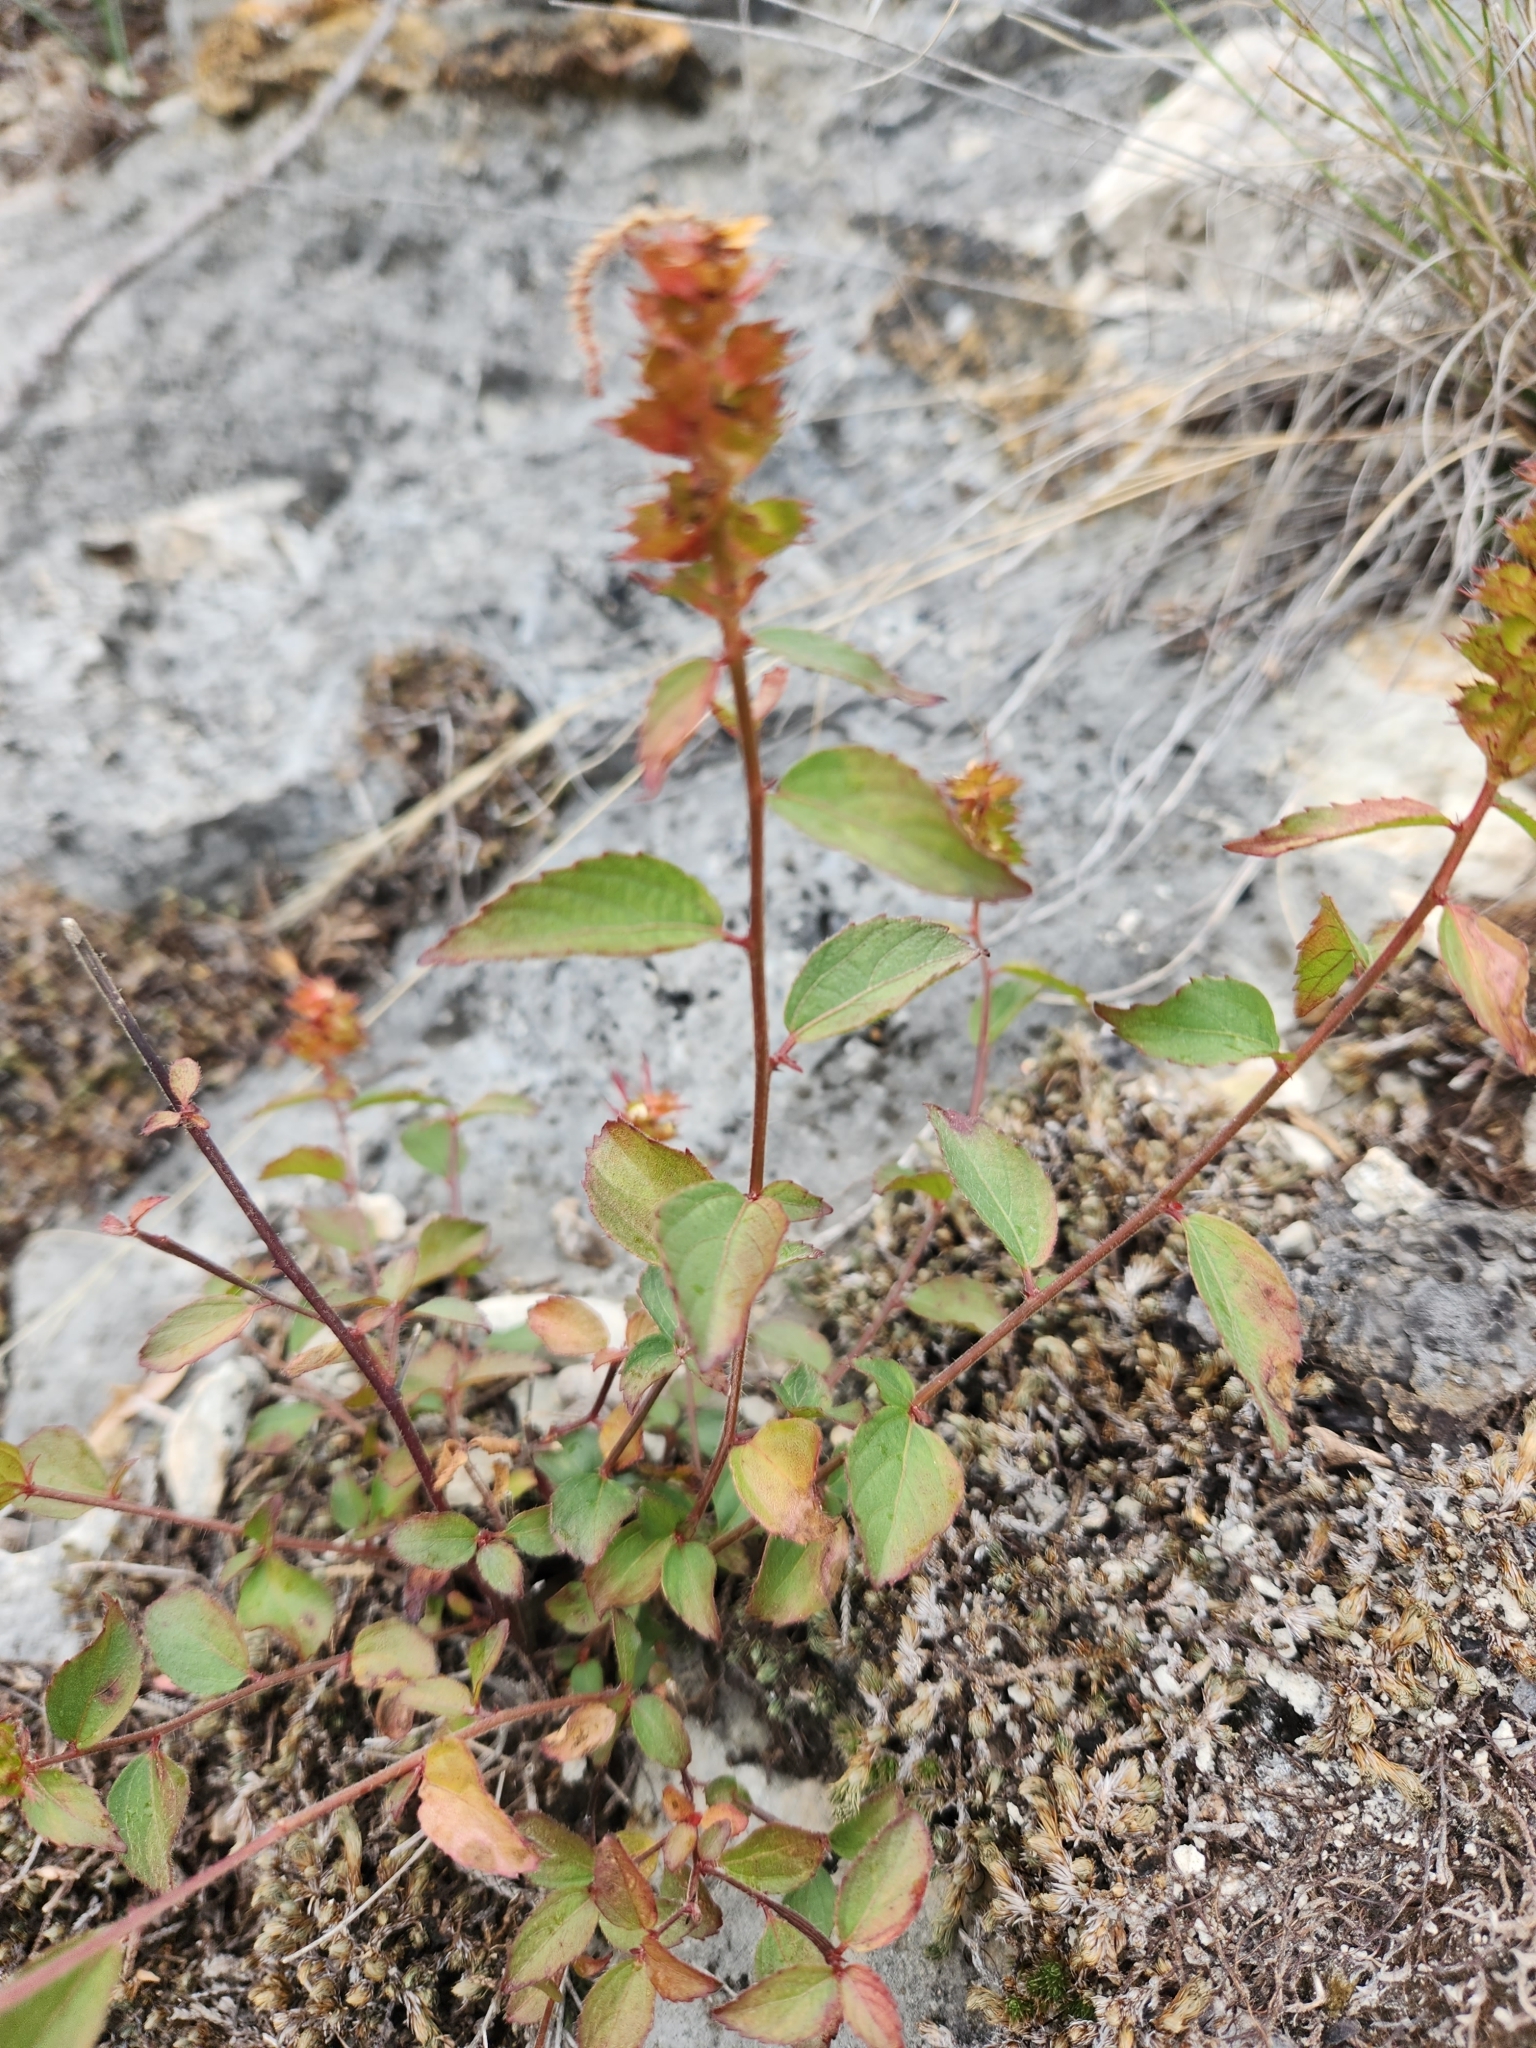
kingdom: Plantae
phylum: Tracheophyta
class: Magnoliopsida
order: Malpighiales
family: Euphorbiaceae
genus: Acalypha
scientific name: Acalypha phleoides
